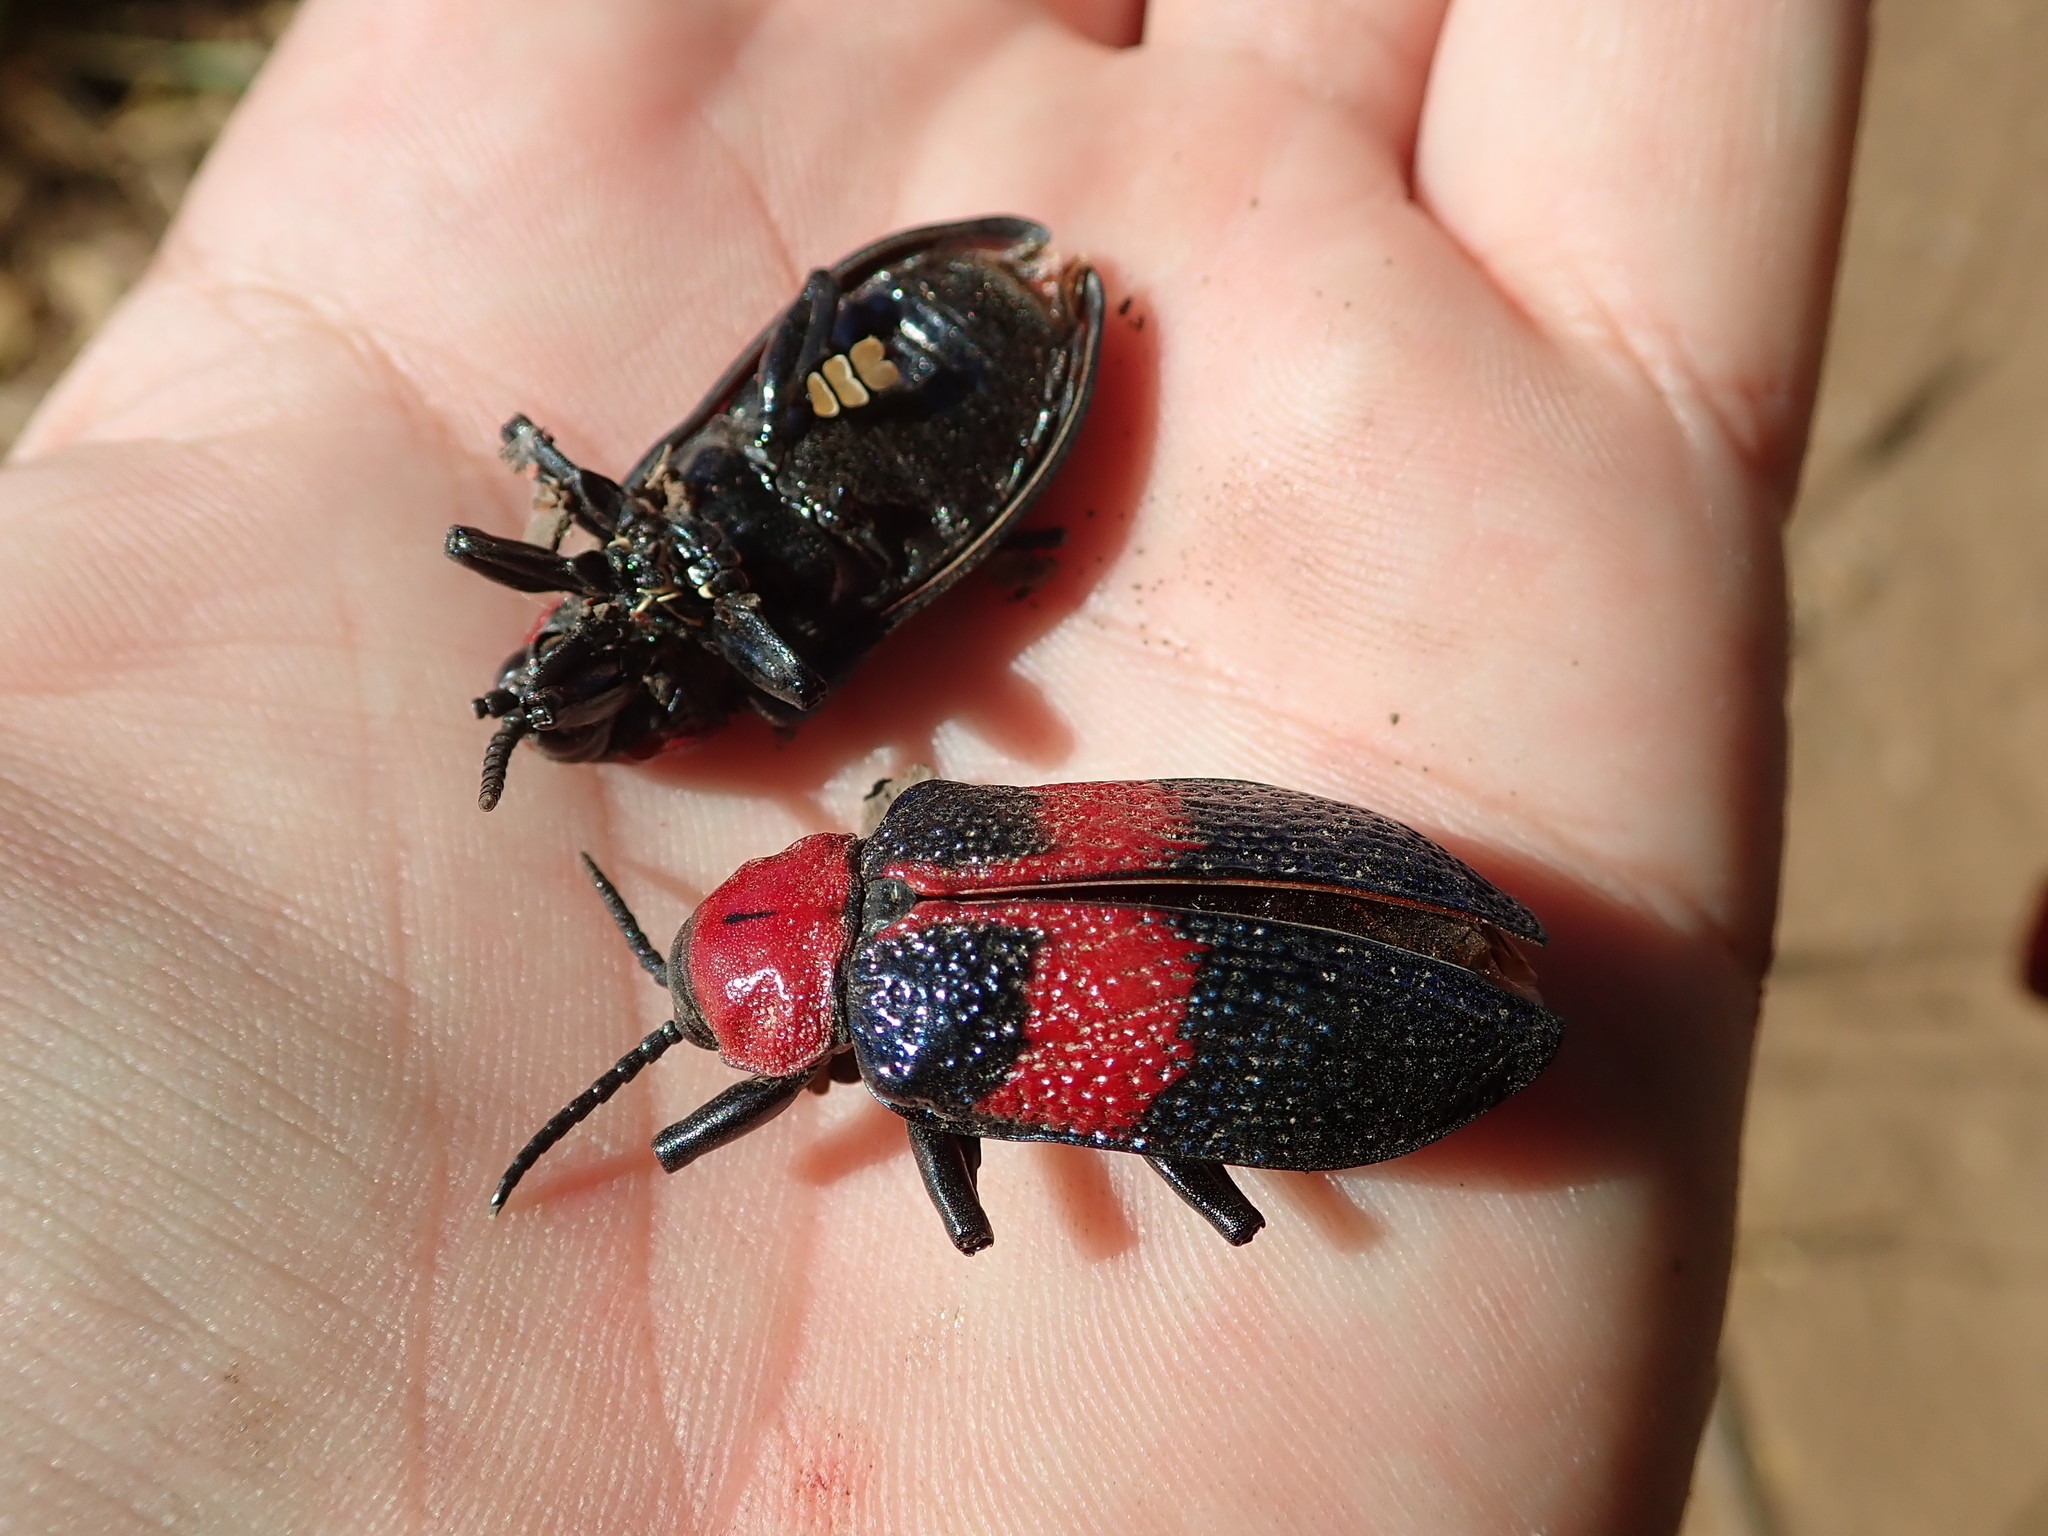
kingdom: Animalia
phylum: Arthropoda
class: Insecta
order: Coleoptera
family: Chrysomelidae
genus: Coraliomela
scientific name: Coraliomela aeneoplagiata
